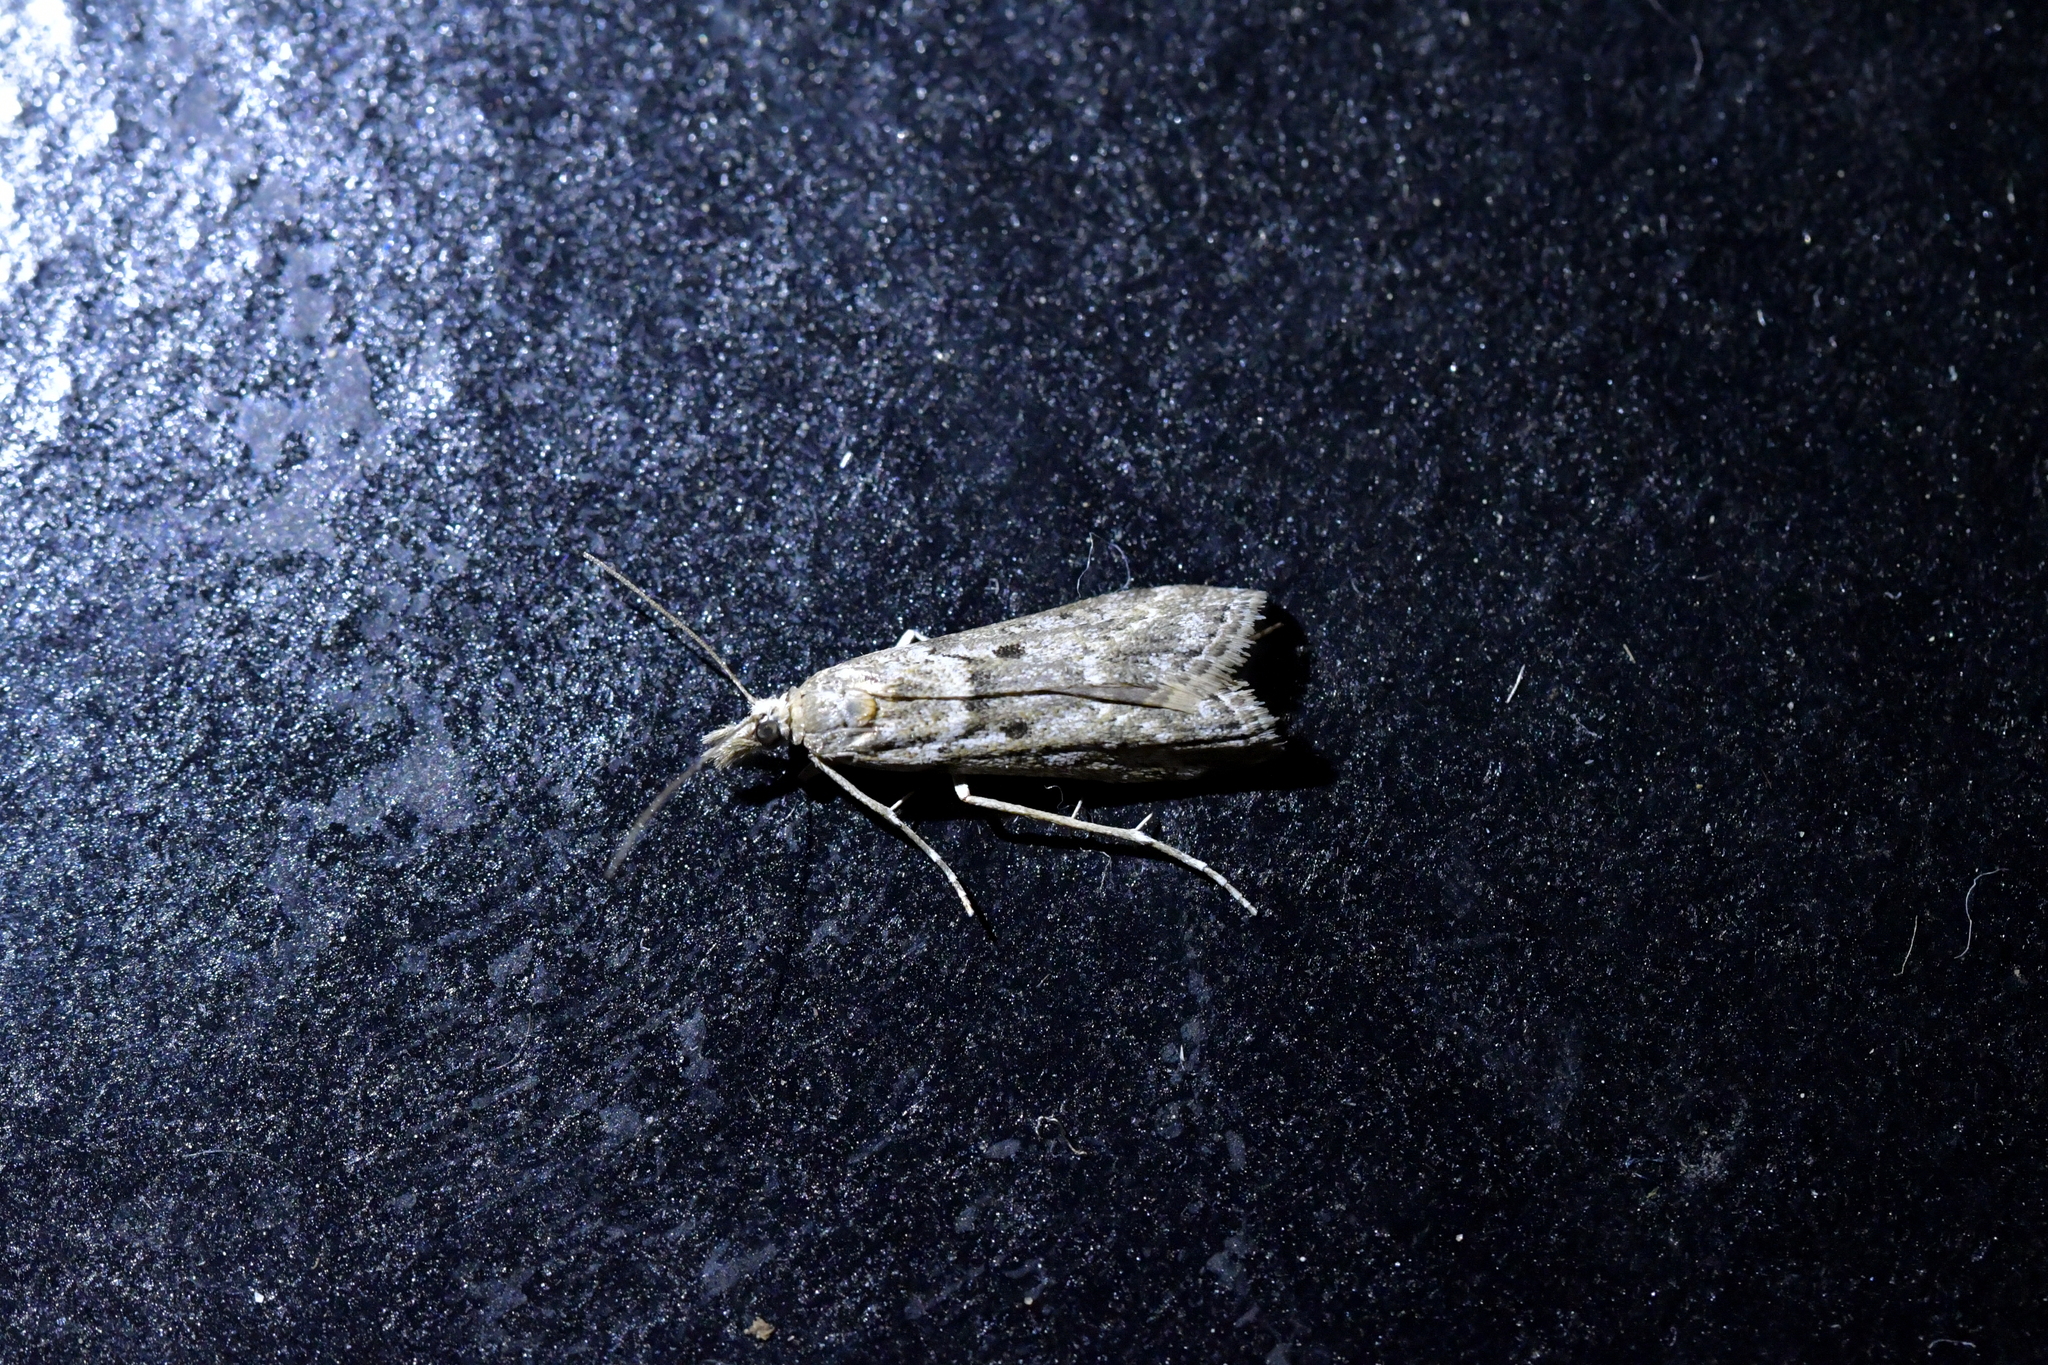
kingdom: Animalia
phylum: Arthropoda
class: Insecta
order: Lepidoptera
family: Crambidae
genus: Eudonia
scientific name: Eudonia leptalea
